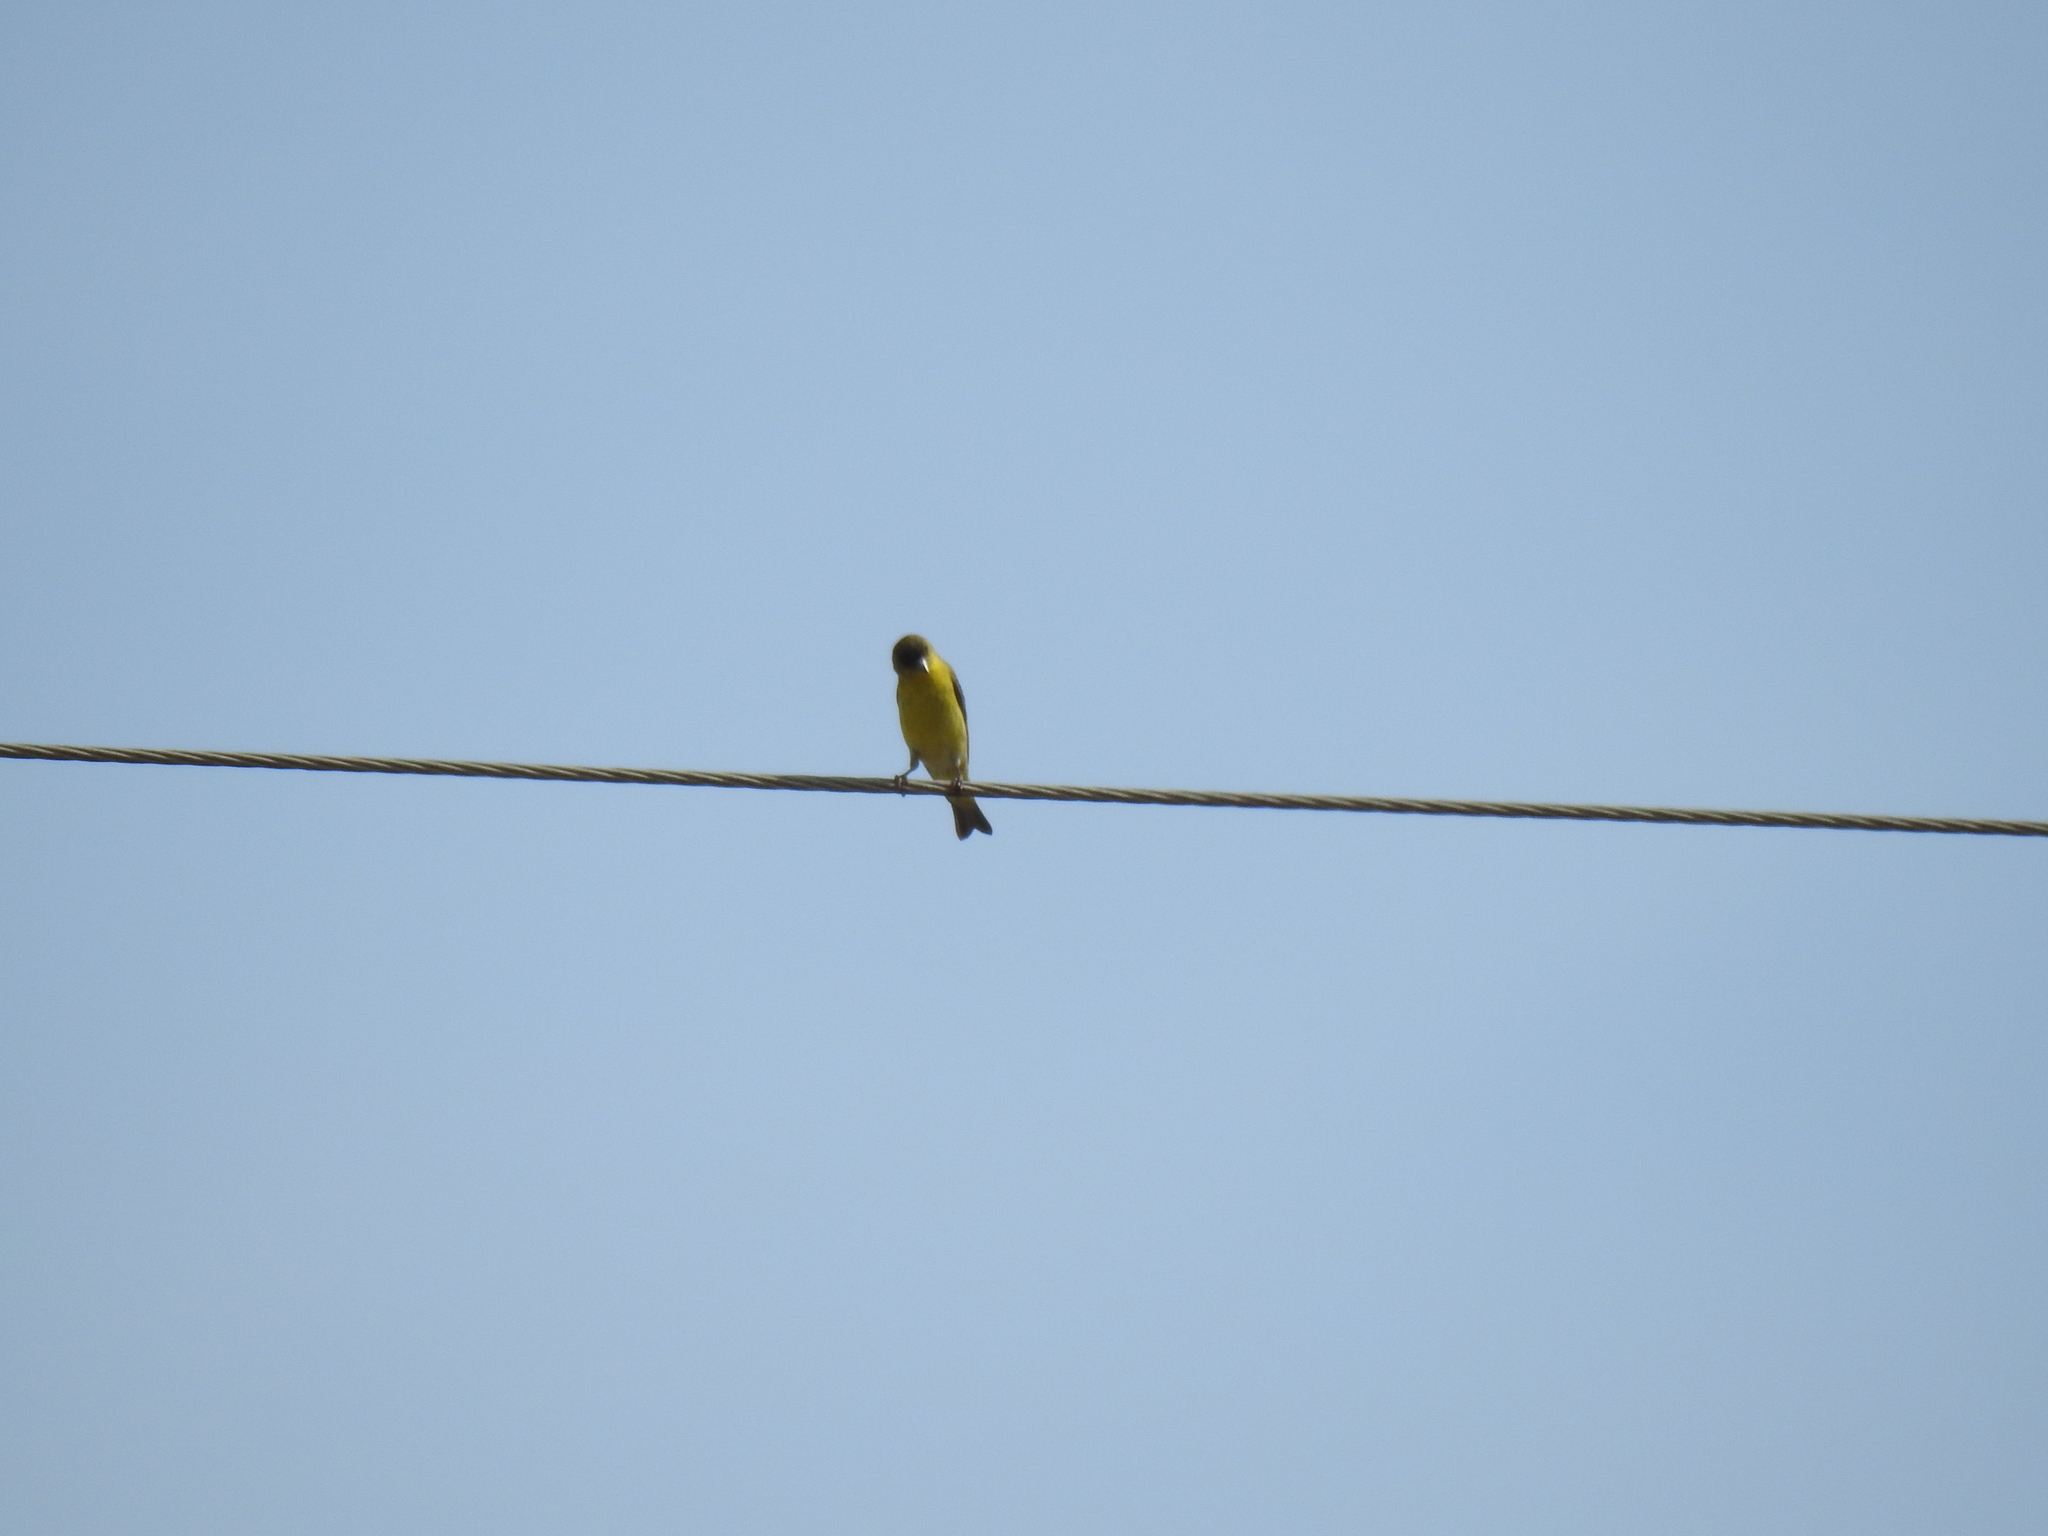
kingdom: Animalia
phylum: Chordata
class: Aves
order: Passeriformes
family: Fringillidae
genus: Spinus
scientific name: Spinus psaltria
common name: Lesser goldfinch
